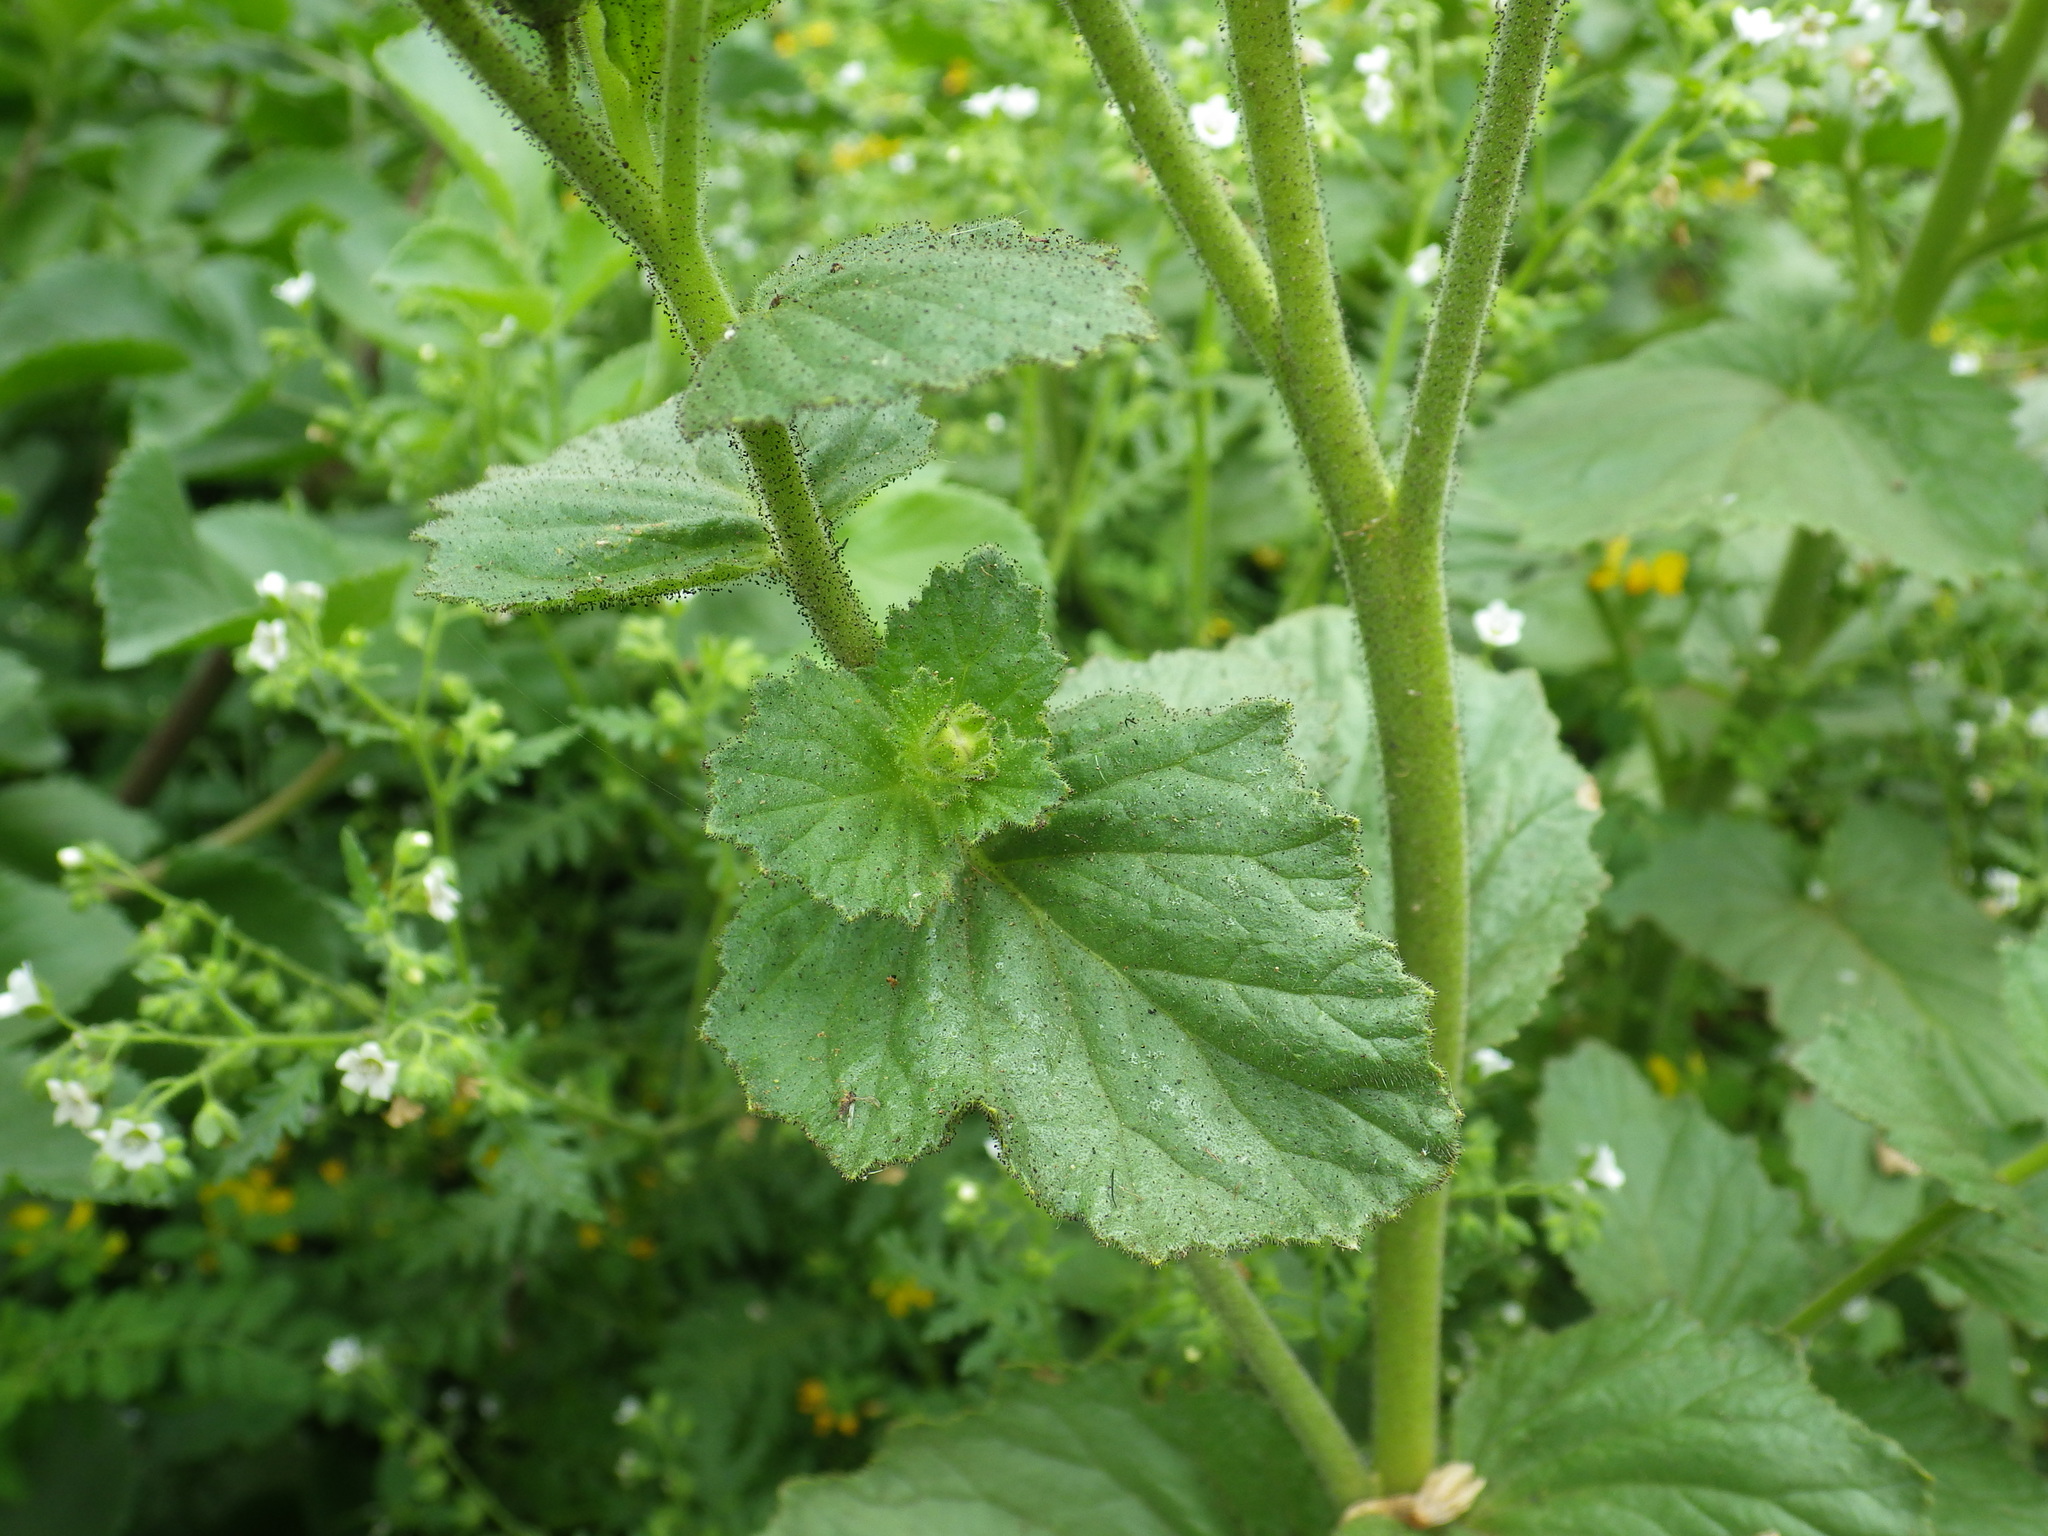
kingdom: Plantae
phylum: Tracheophyta
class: Magnoliopsida
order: Boraginales
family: Hydrophyllaceae
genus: Phacelia
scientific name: Phacelia viscida
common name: Sticky phacelia
